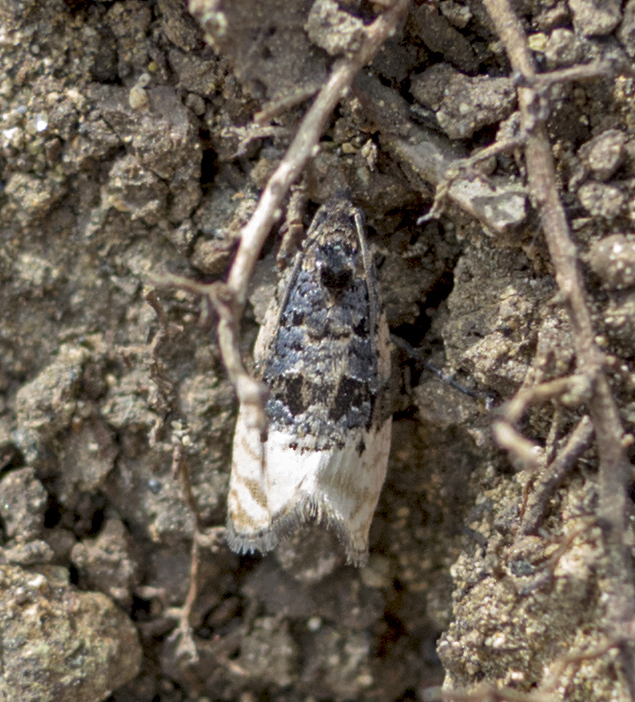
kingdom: Animalia
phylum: Arthropoda
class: Insecta
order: Lepidoptera
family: Tortricidae
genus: Metendothenia
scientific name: Metendothenia atropunctana
